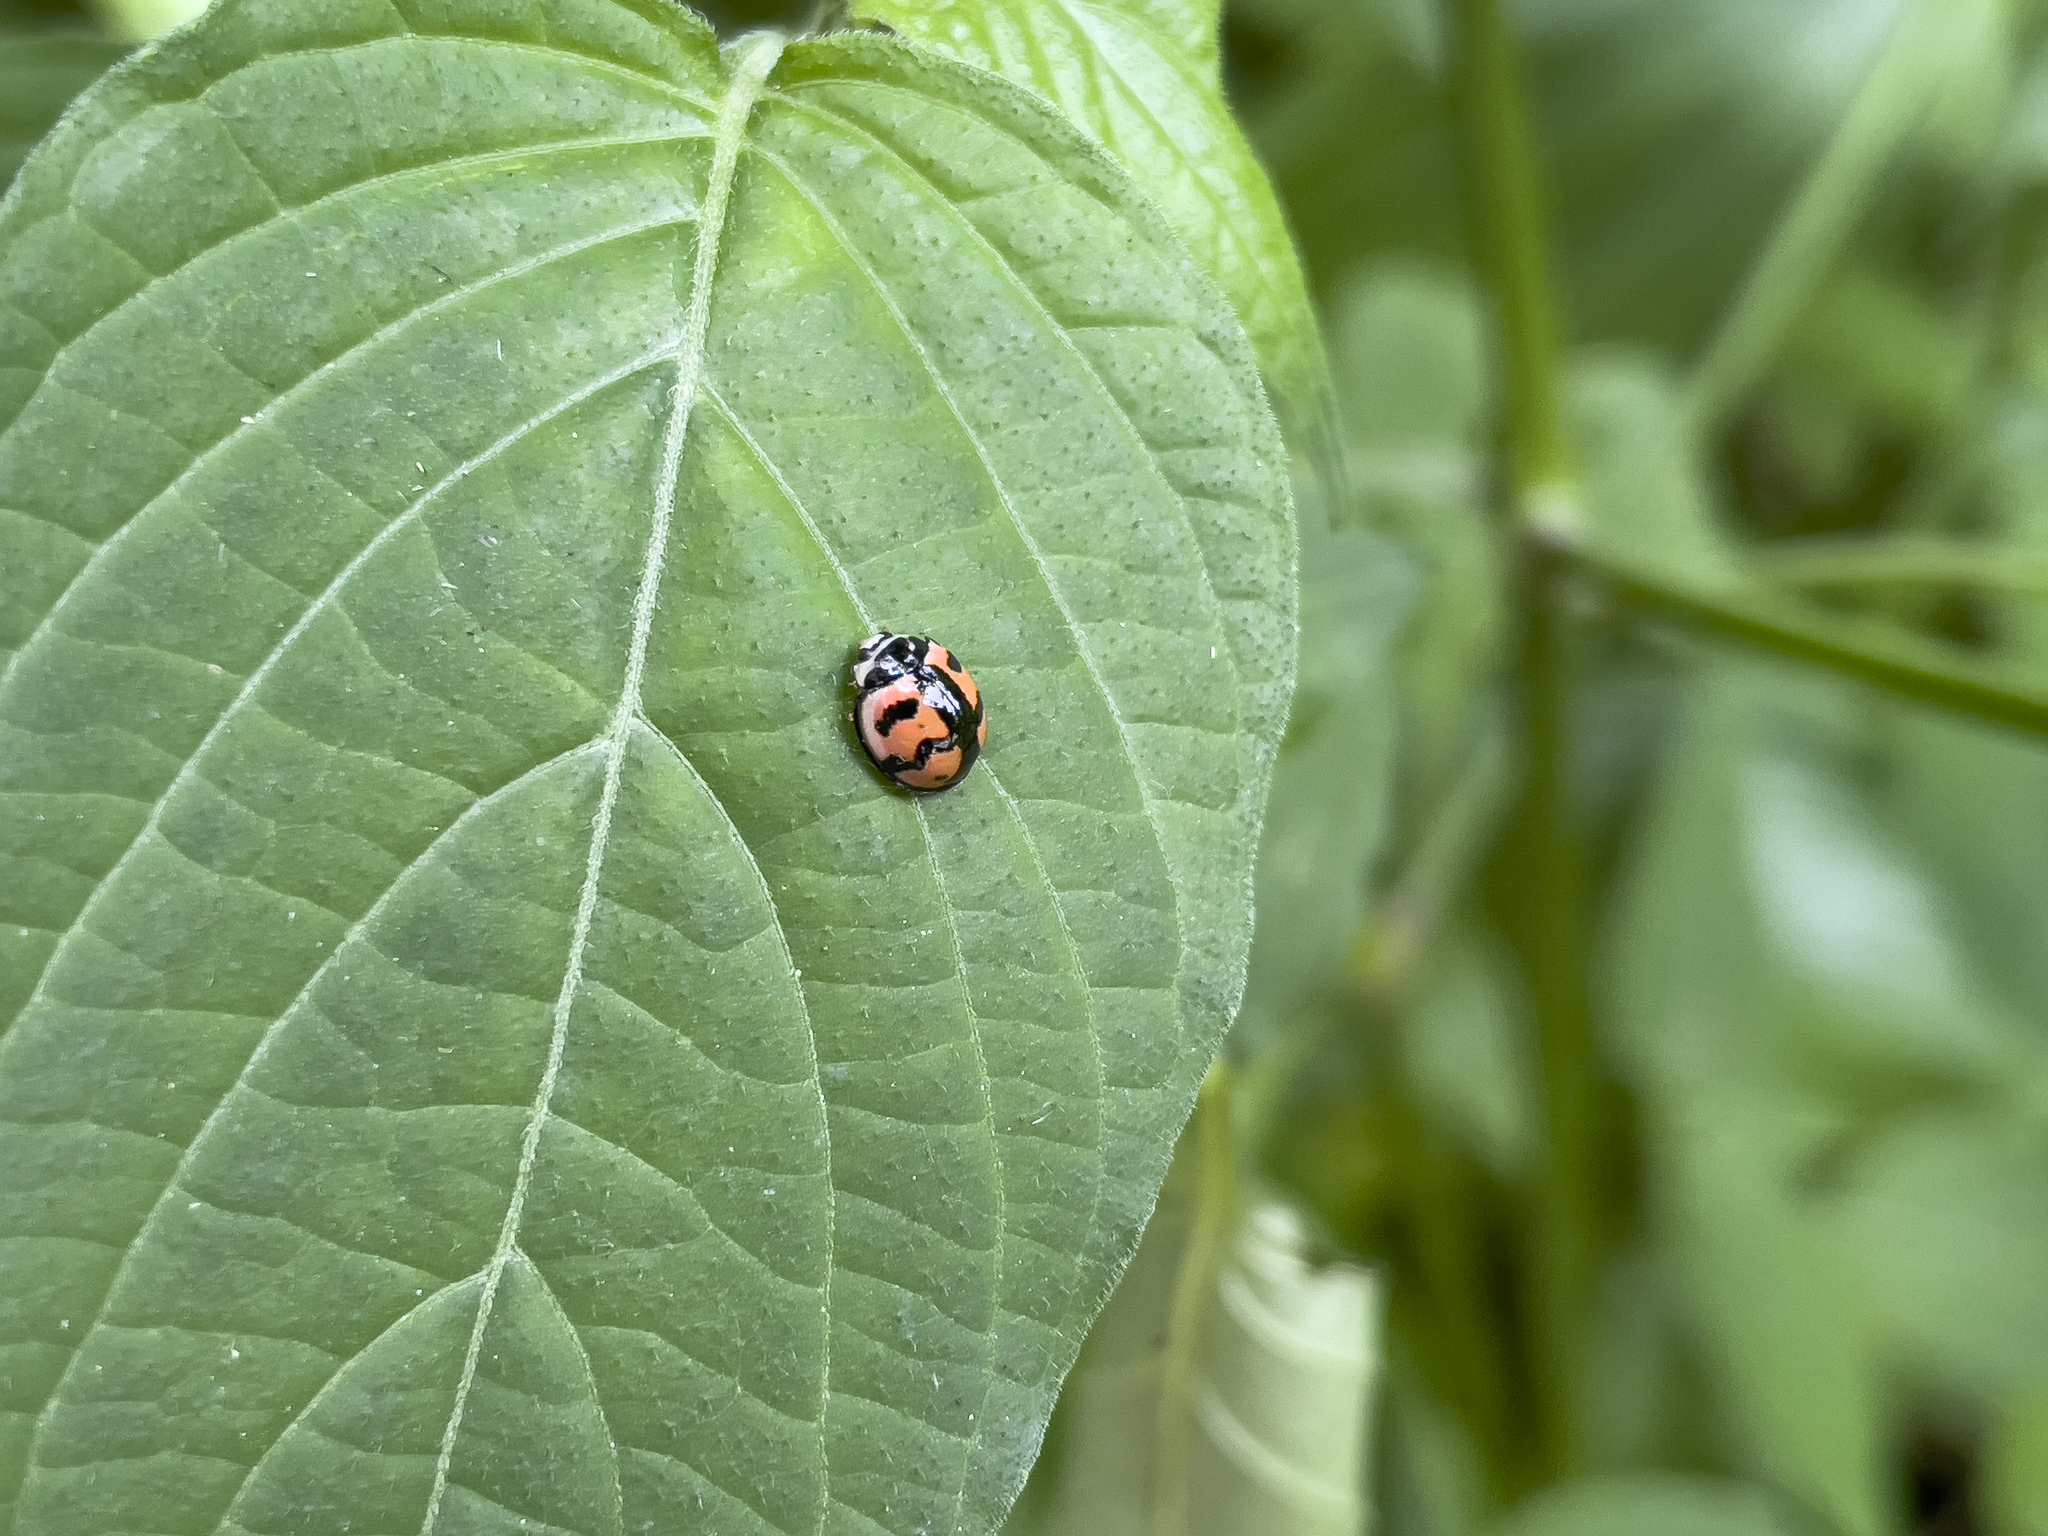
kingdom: Animalia
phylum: Arthropoda
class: Insecta
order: Coleoptera
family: Coccinellidae
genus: Cheilomenes
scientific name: Cheilomenes sexmaculata
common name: Ladybird beetle
